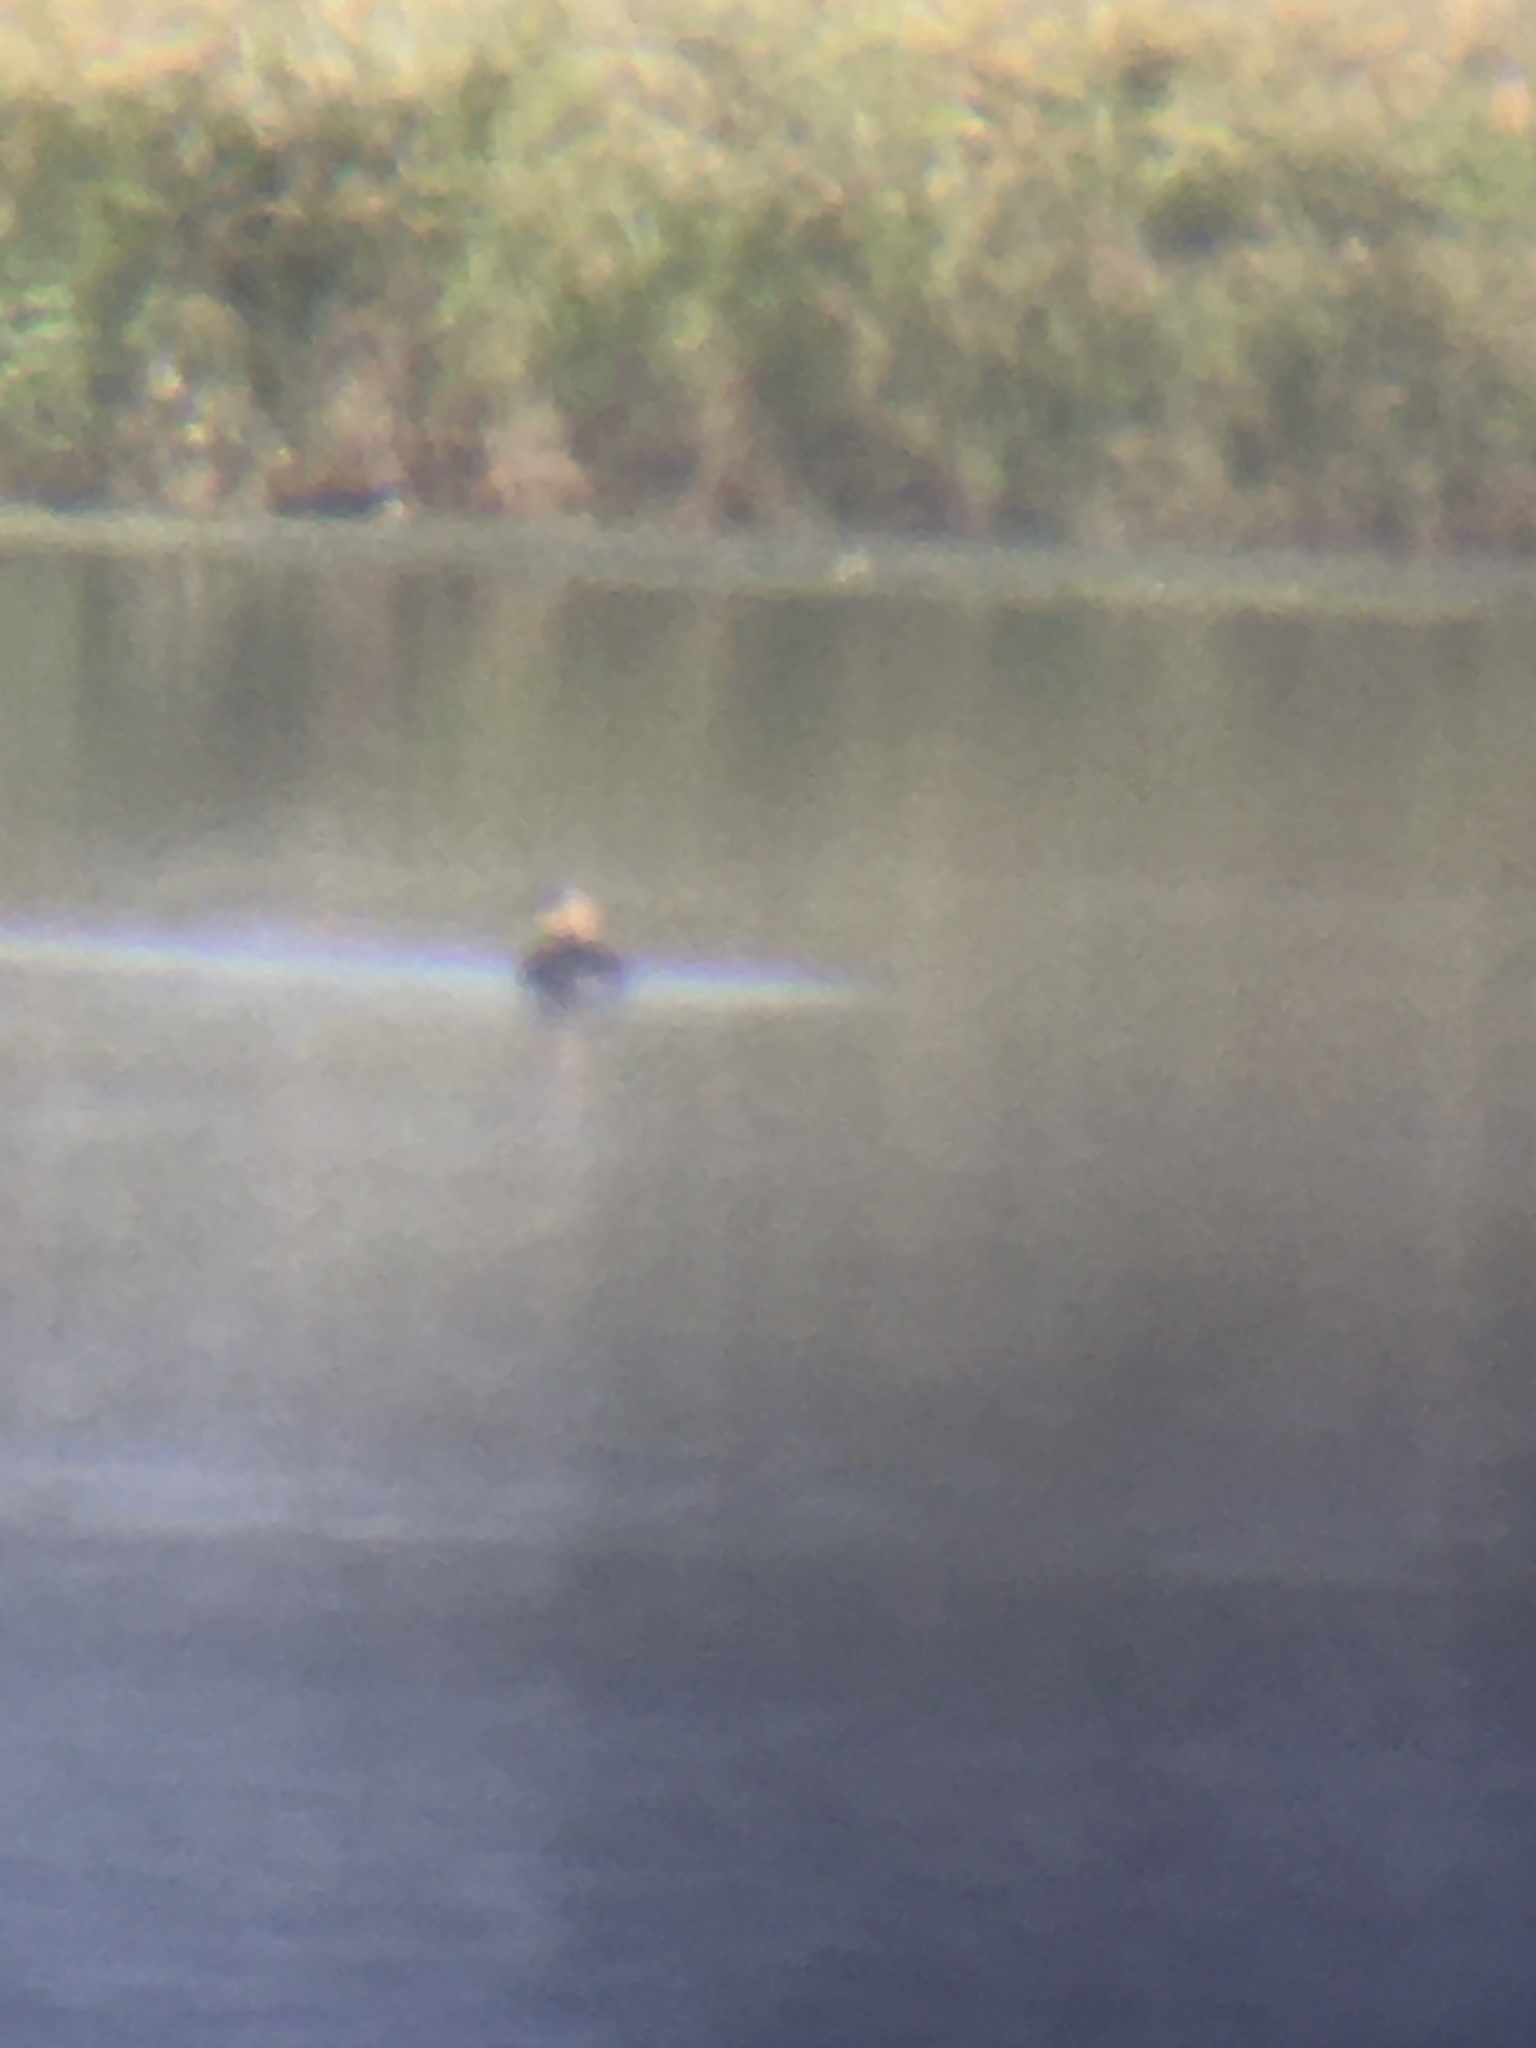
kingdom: Animalia
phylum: Chordata
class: Aves
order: Podicipediformes
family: Podicipedidae
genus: Podilymbus
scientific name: Podilymbus podiceps
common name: Pied-billed grebe
